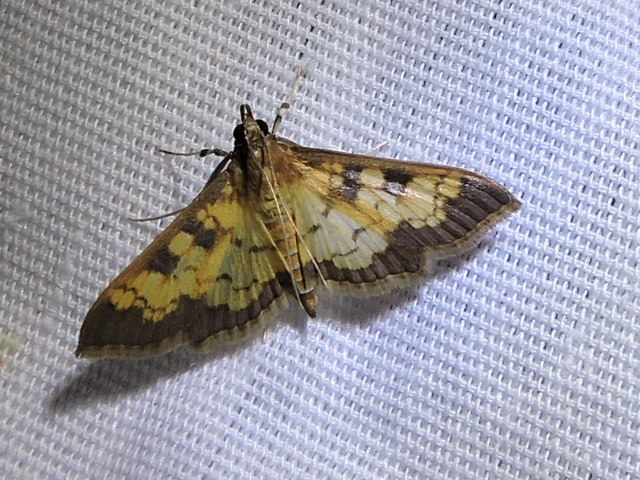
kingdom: Animalia
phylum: Arthropoda
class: Insecta
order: Lepidoptera
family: Crambidae
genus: Cryptographis
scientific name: Cryptographis elealis
